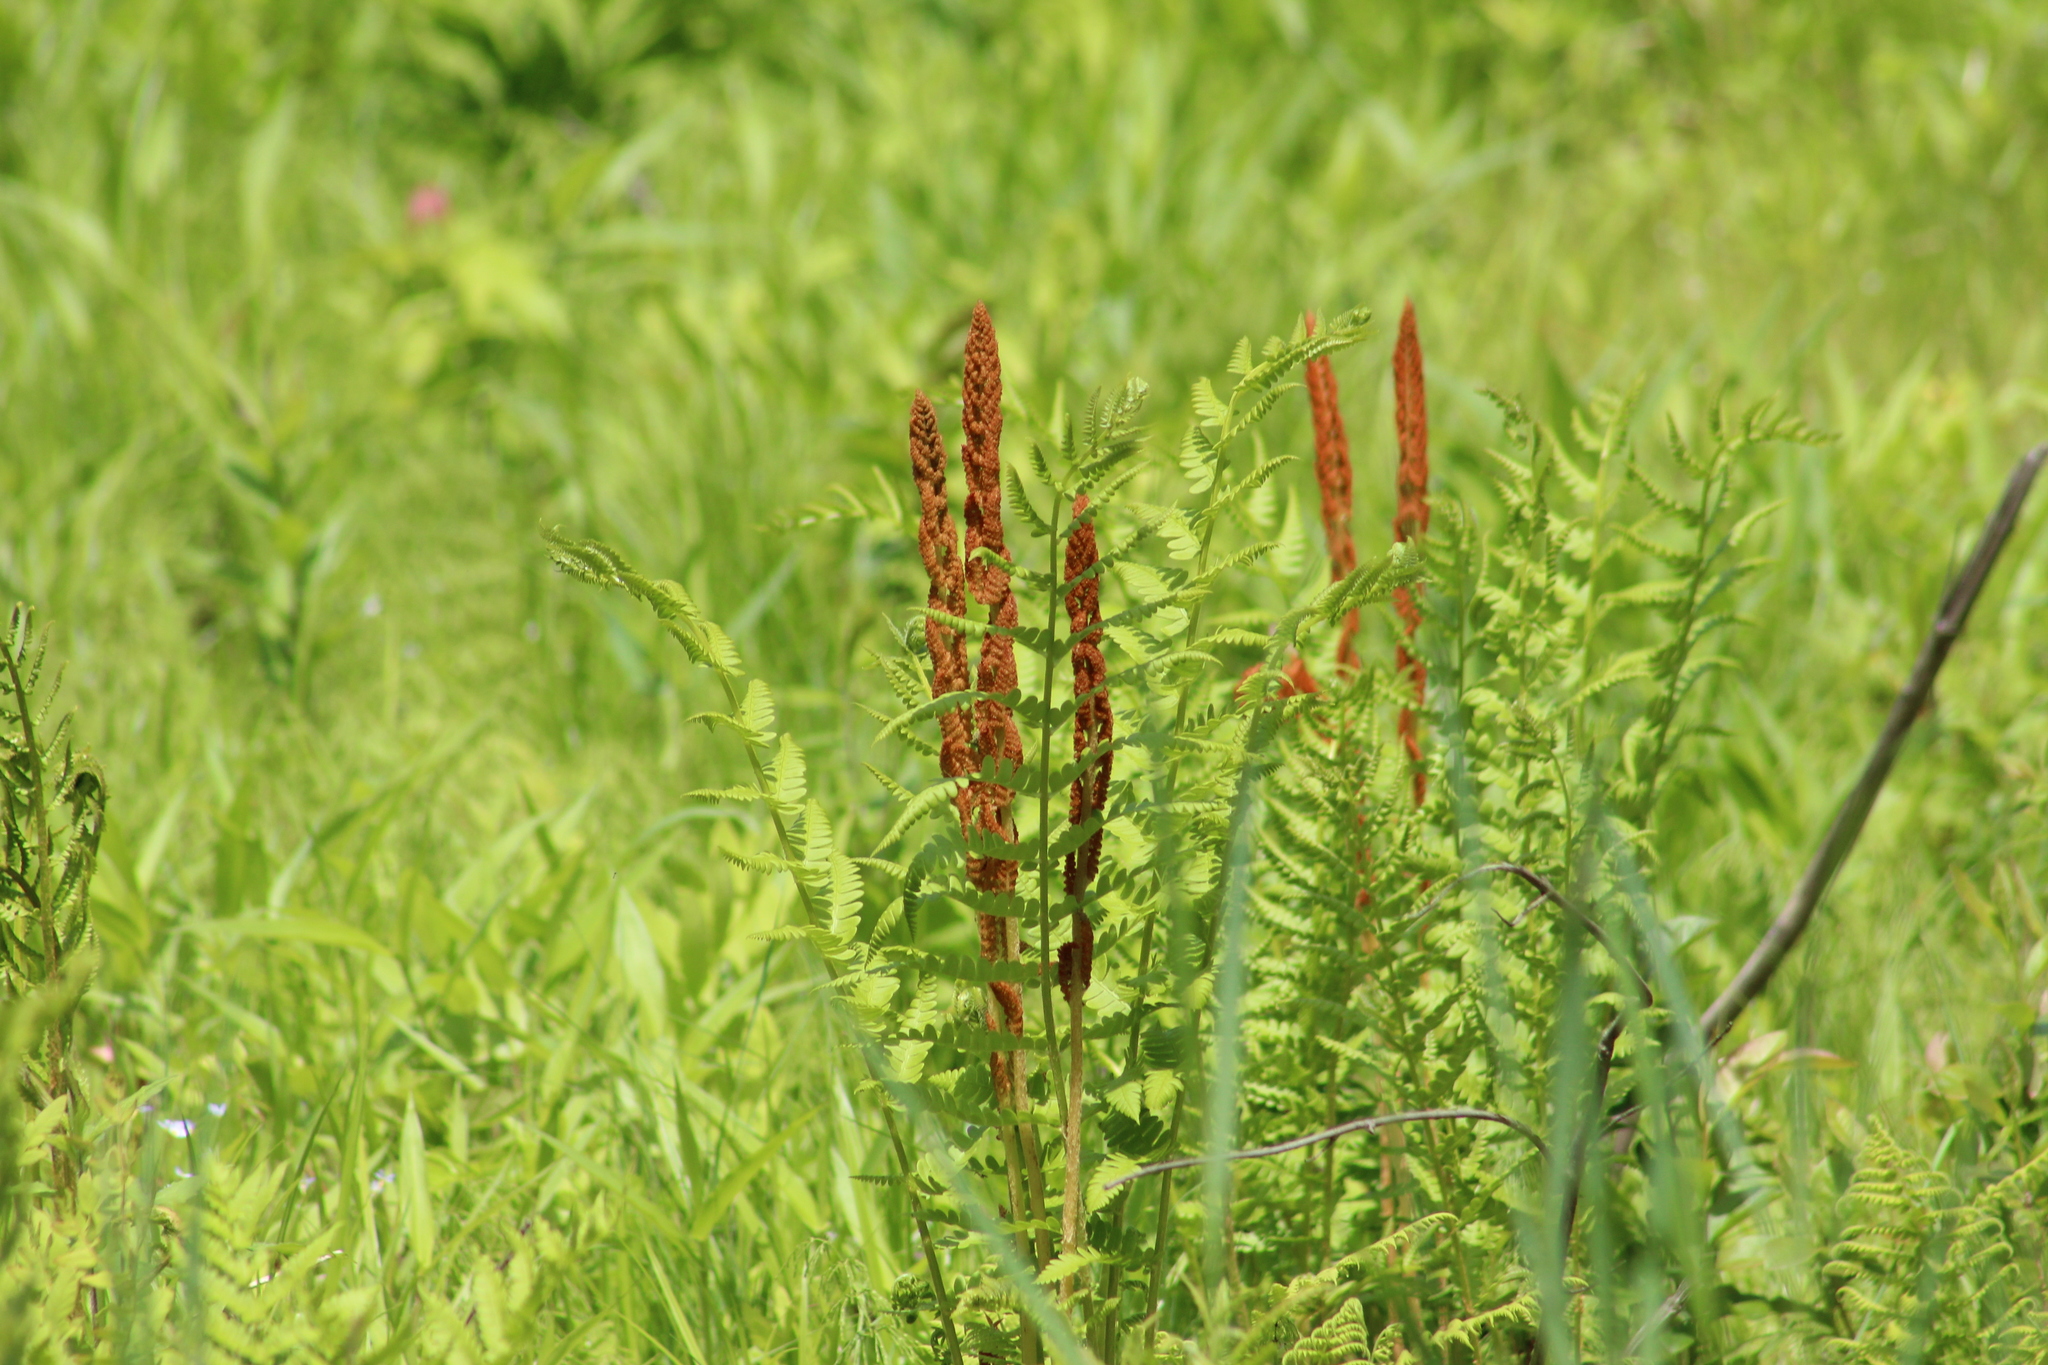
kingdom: Plantae
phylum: Tracheophyta
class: Polypodiopsida
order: Osmundales
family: Osmundaceae
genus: Osmundastrum
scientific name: Osmundastrum cinnamomeum
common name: Cinnamon fern
